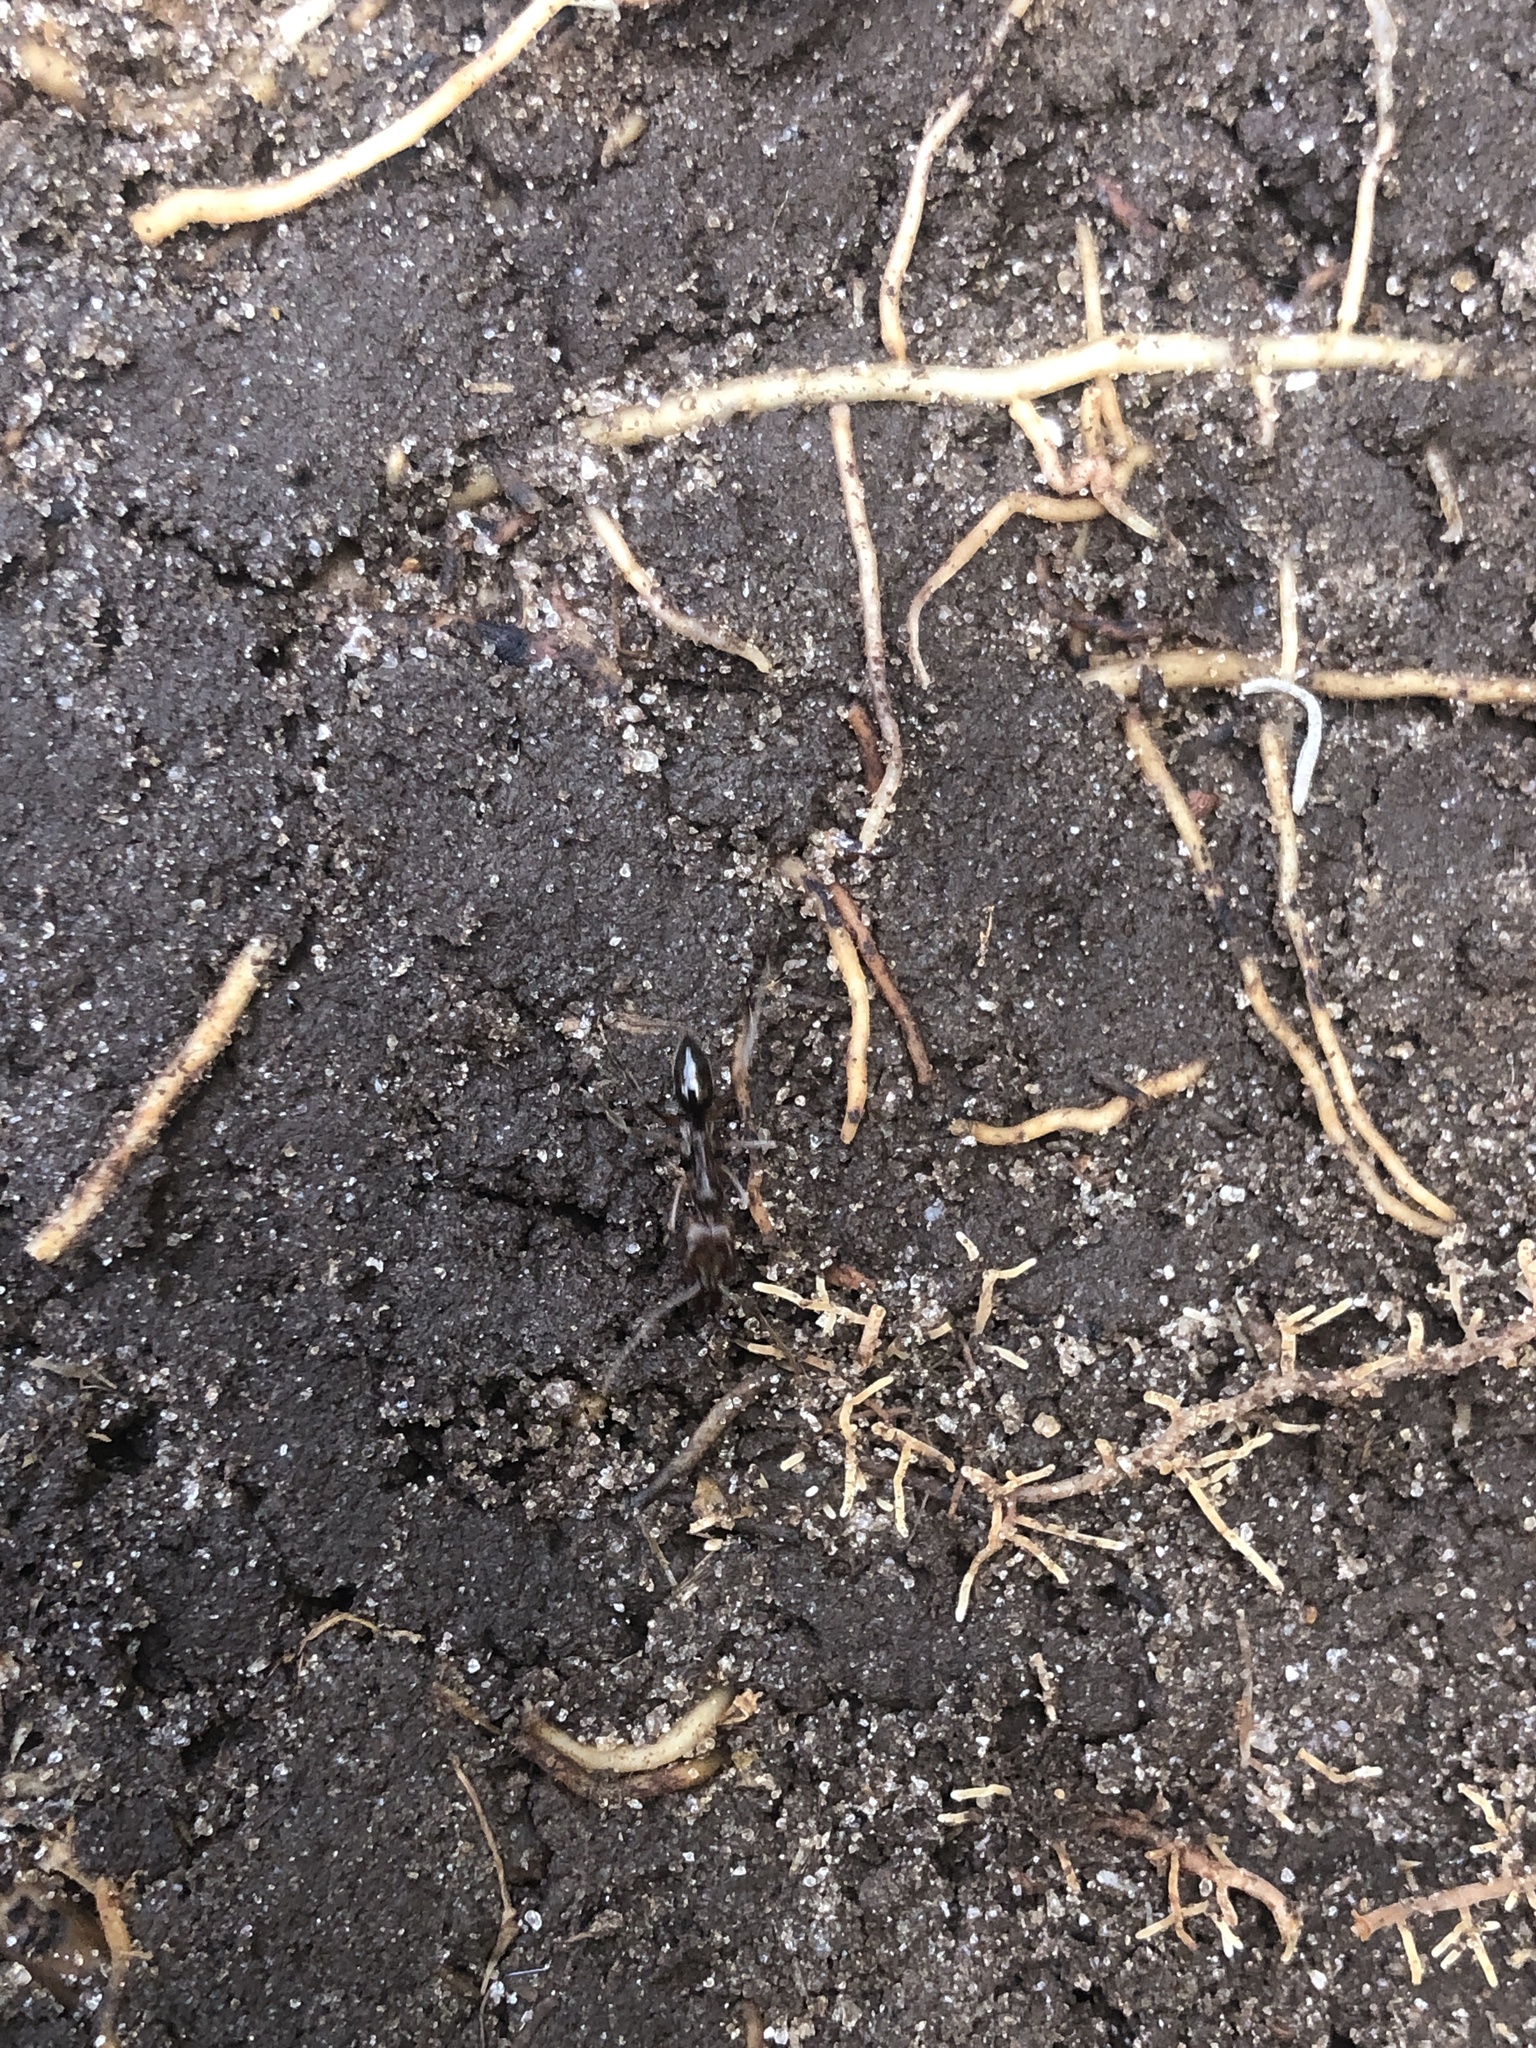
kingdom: Animalia
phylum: Arthropoda
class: Insecta
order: Hymenoptera
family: Formicidae
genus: Odontomachus
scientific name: Odontomachus brunneus
